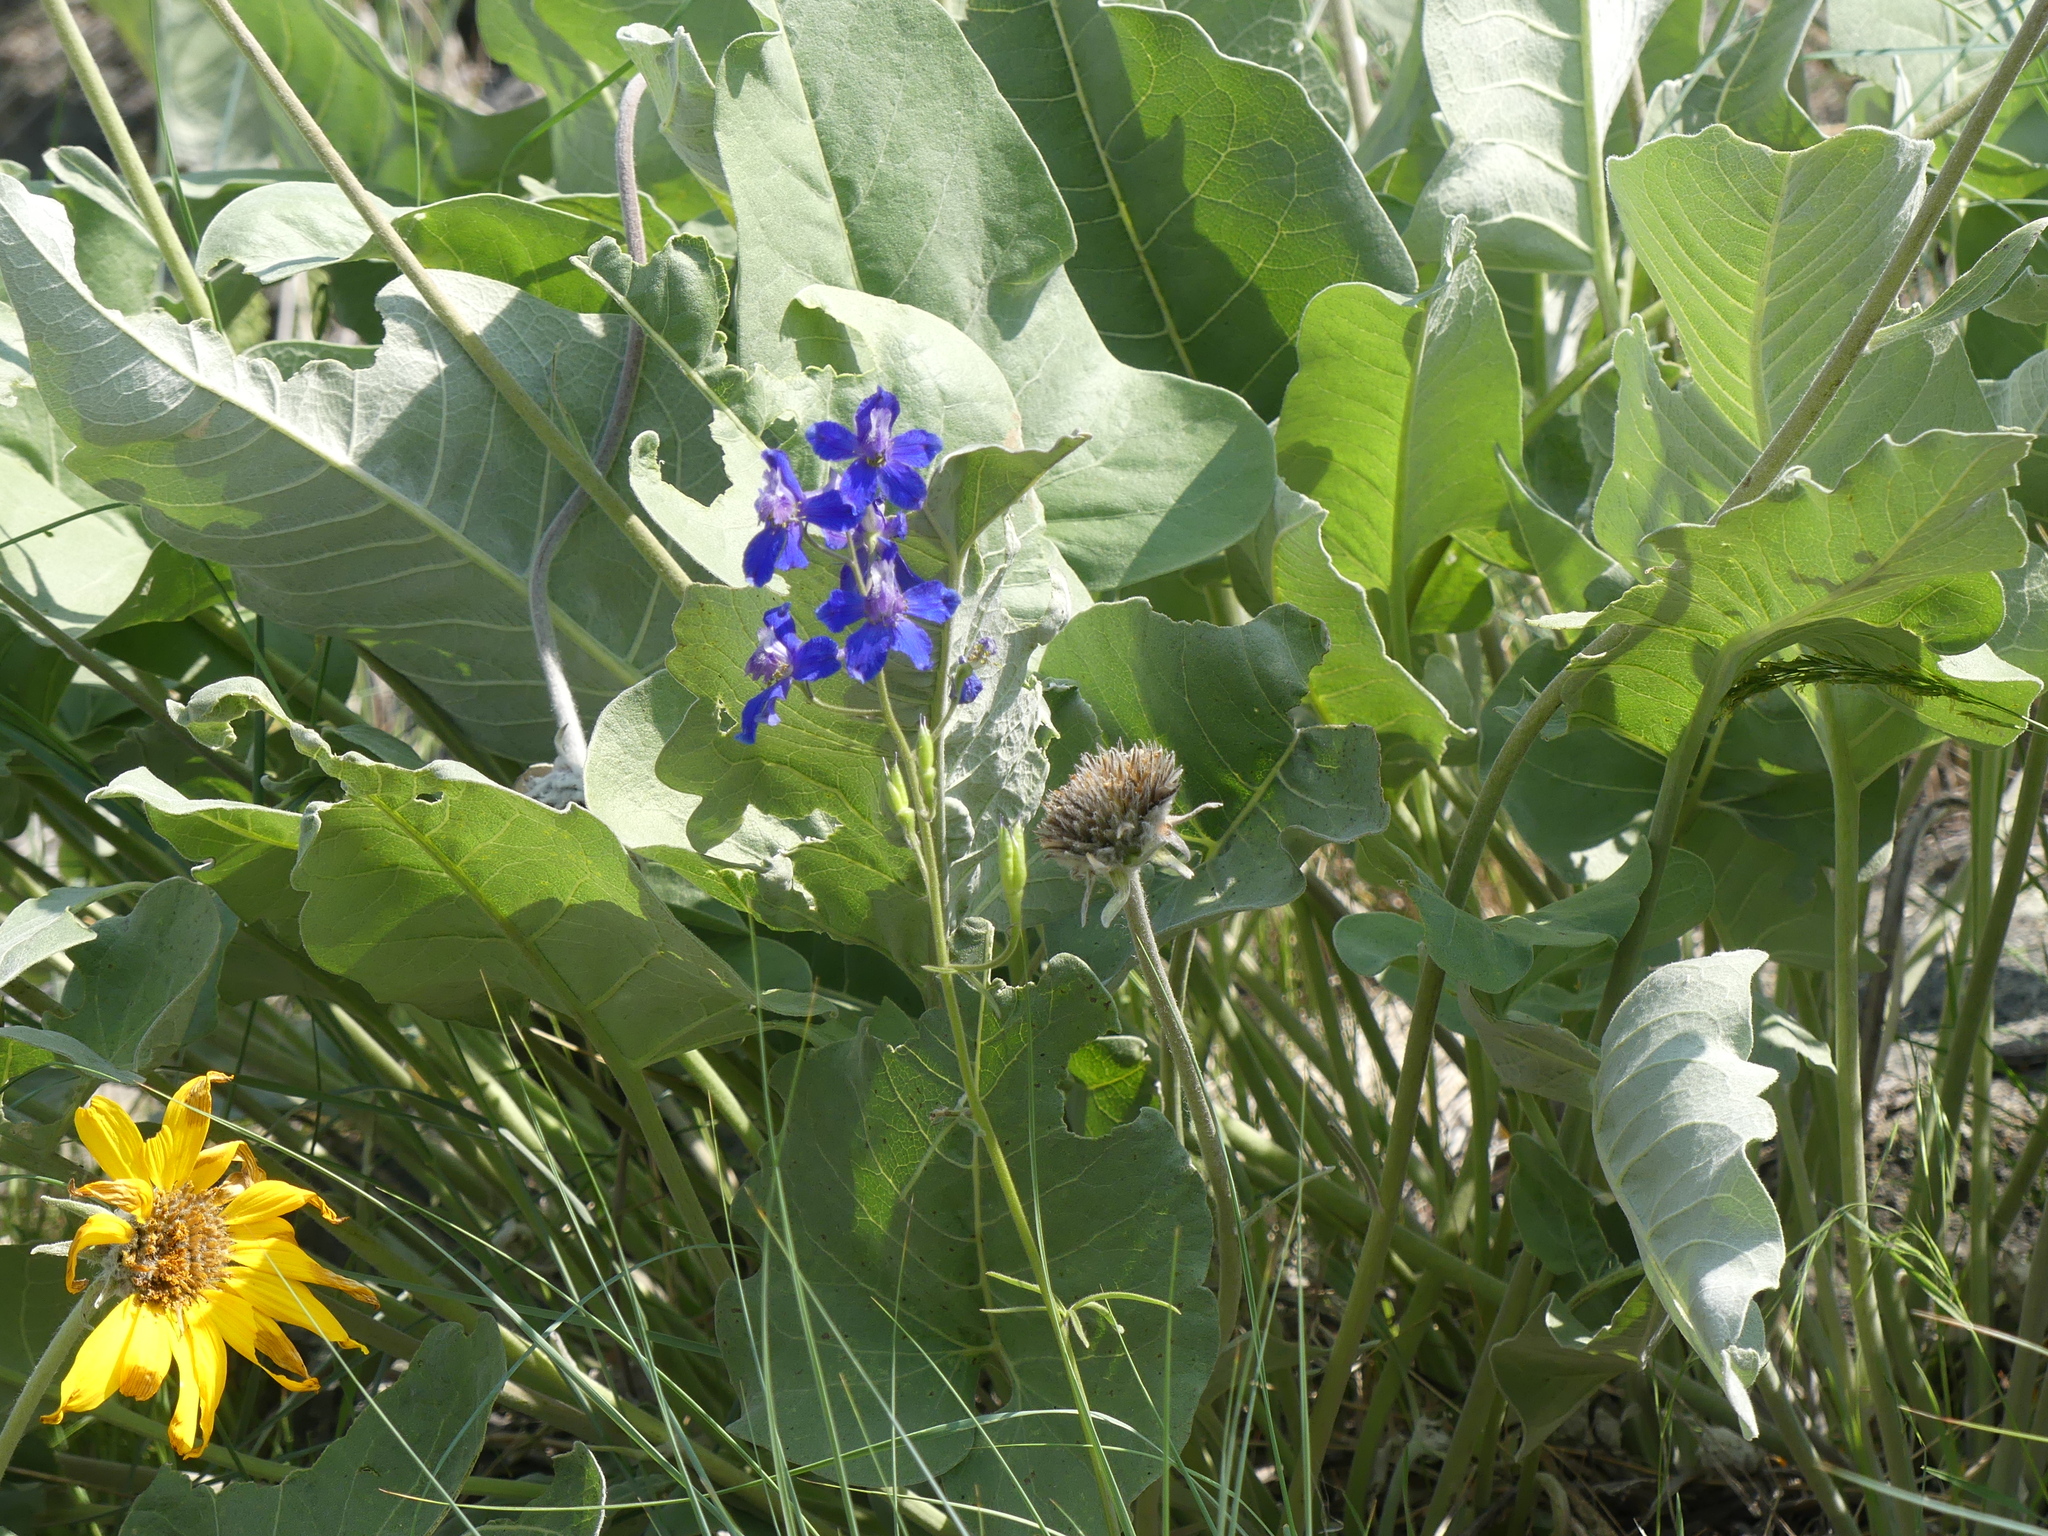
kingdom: Plantae
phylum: Tracheophyta
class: Magnoliopsida
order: Ranunculales
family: Ranunculaceae
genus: Delphinium
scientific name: Delphinium nuttallianum
